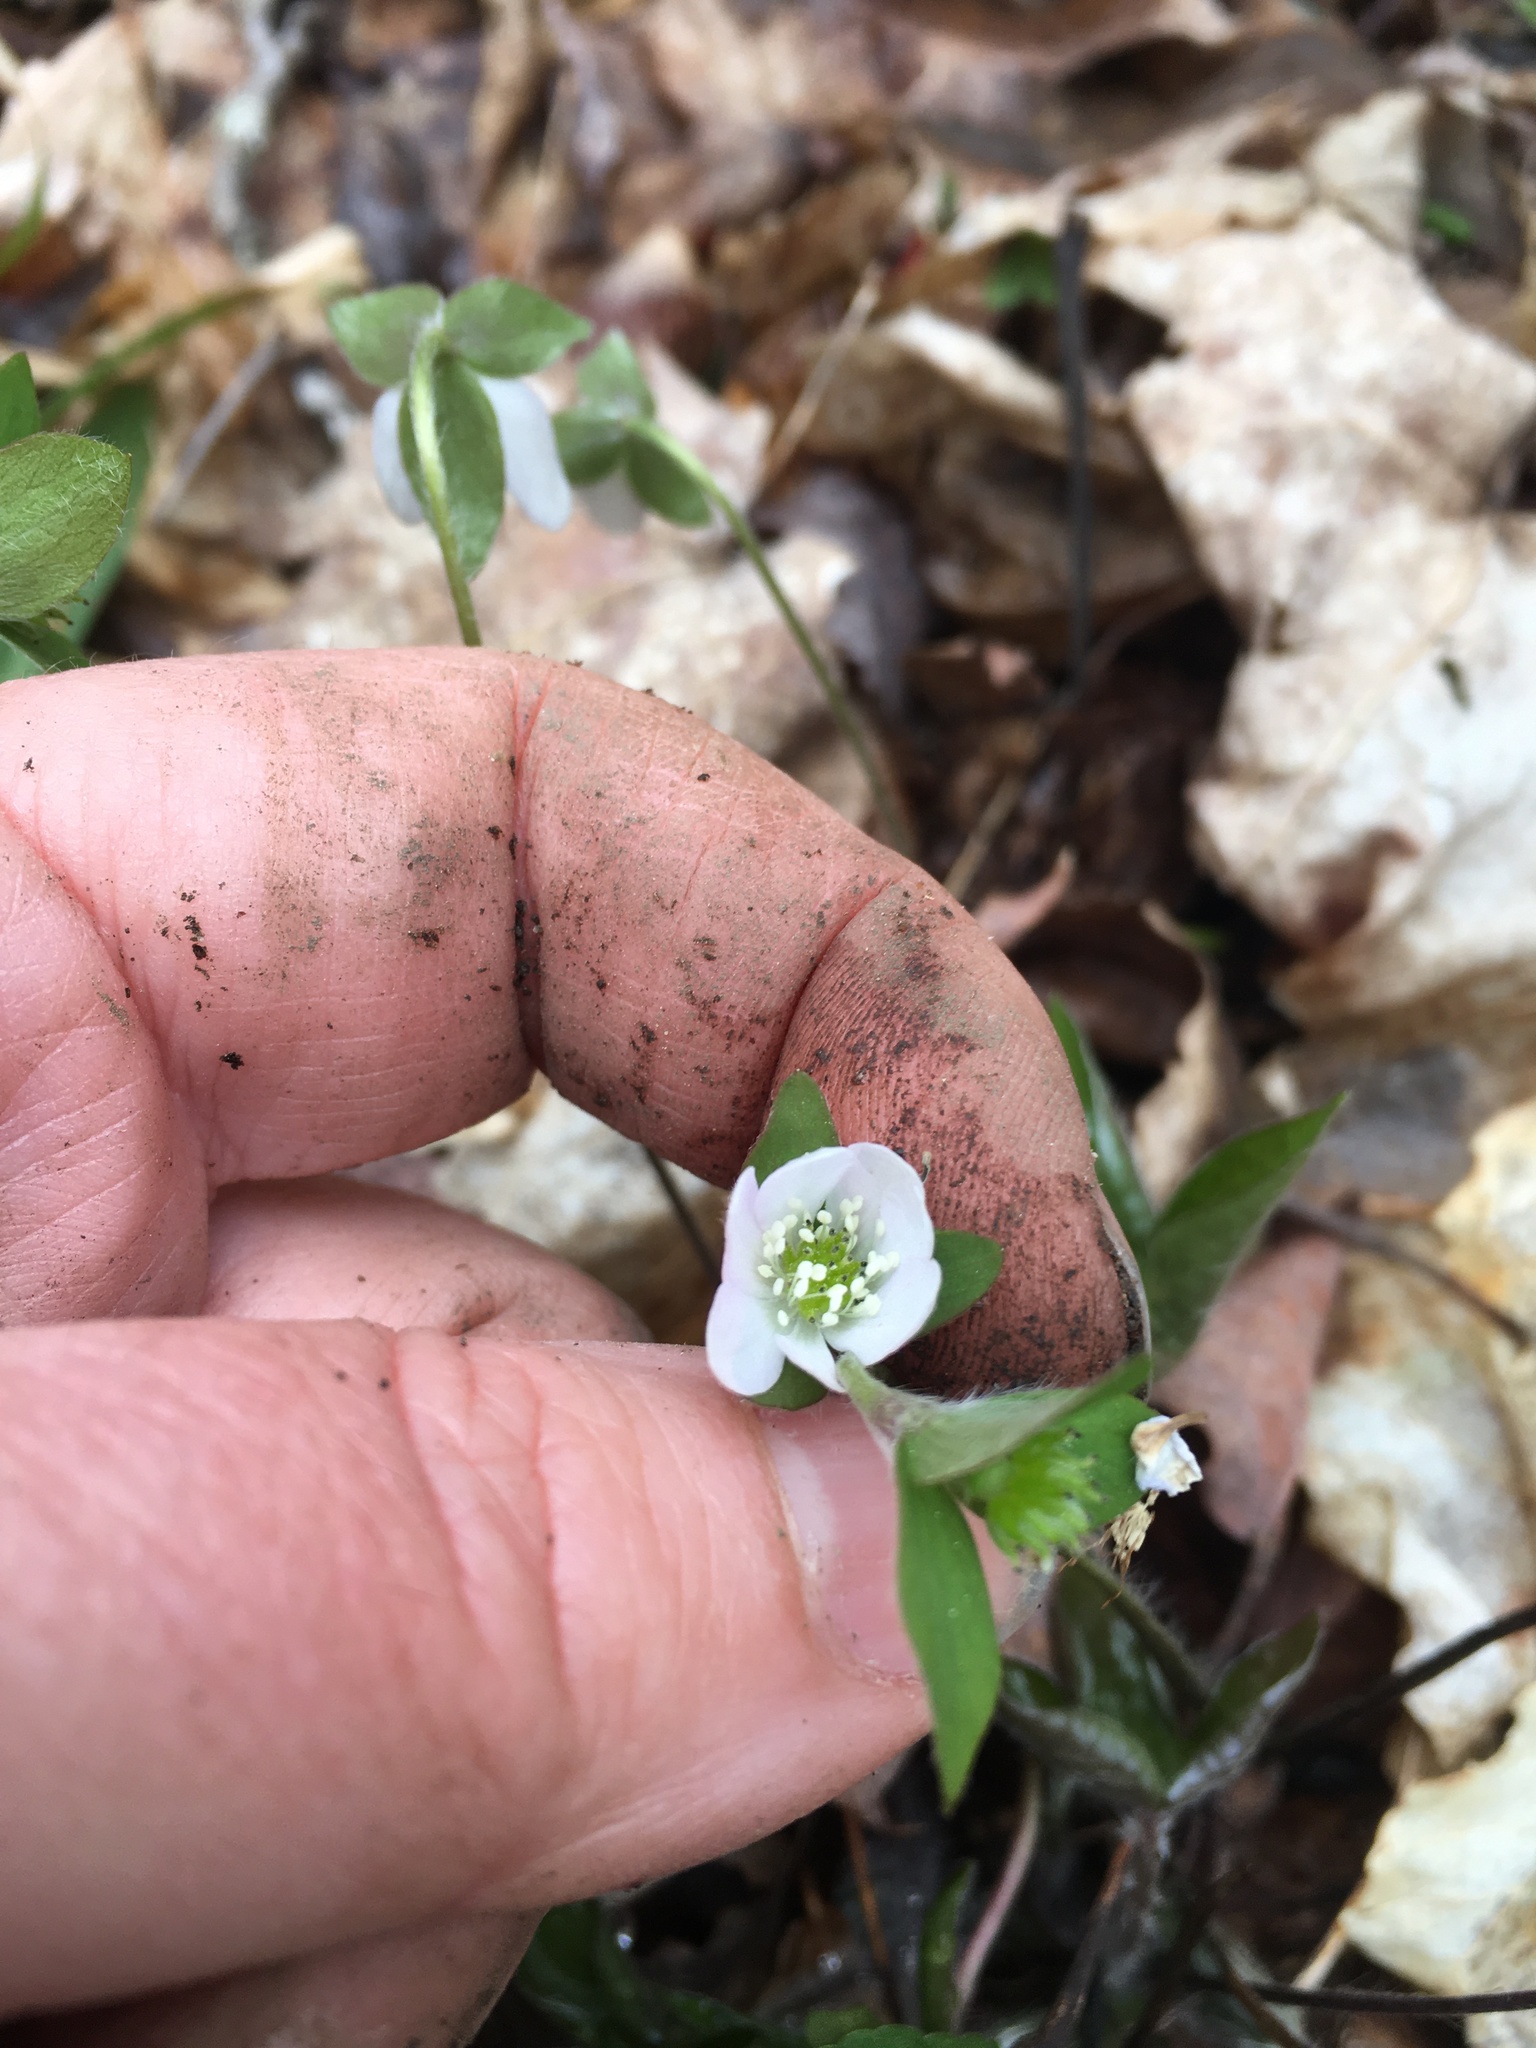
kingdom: Plantae
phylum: Tracheophyta
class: Magnoliopsida
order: Ranunculales
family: Ranunculaceae
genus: Hepatica
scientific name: Hepatica acutiloba
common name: Sharp-lobed hepatica
